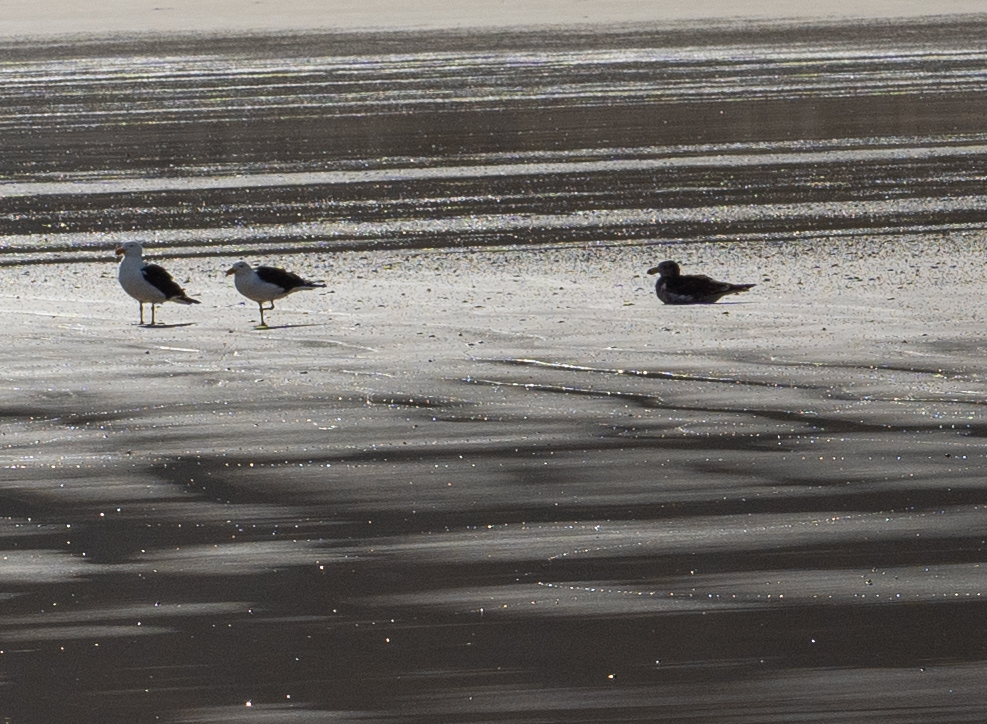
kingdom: Animalia
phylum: Chordata
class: Aves
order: Charadriiformes
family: Laridae
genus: Larus
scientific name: Larus pacificus
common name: Pacific gull
